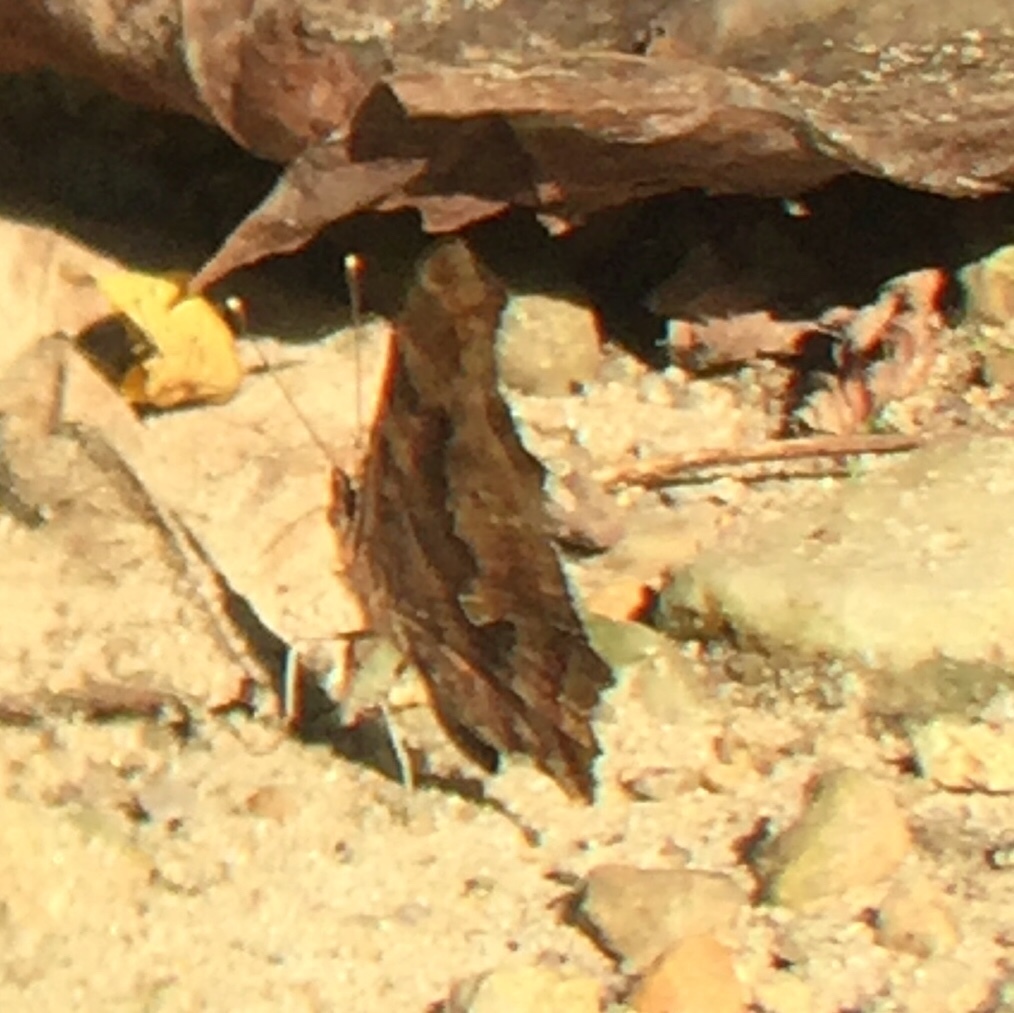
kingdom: Animalia
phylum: Arthropoda
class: Insecta
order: Lepidoptera
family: Nymphalidae
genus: Polygonia
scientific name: Polygonia comma
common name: Eastern comma
